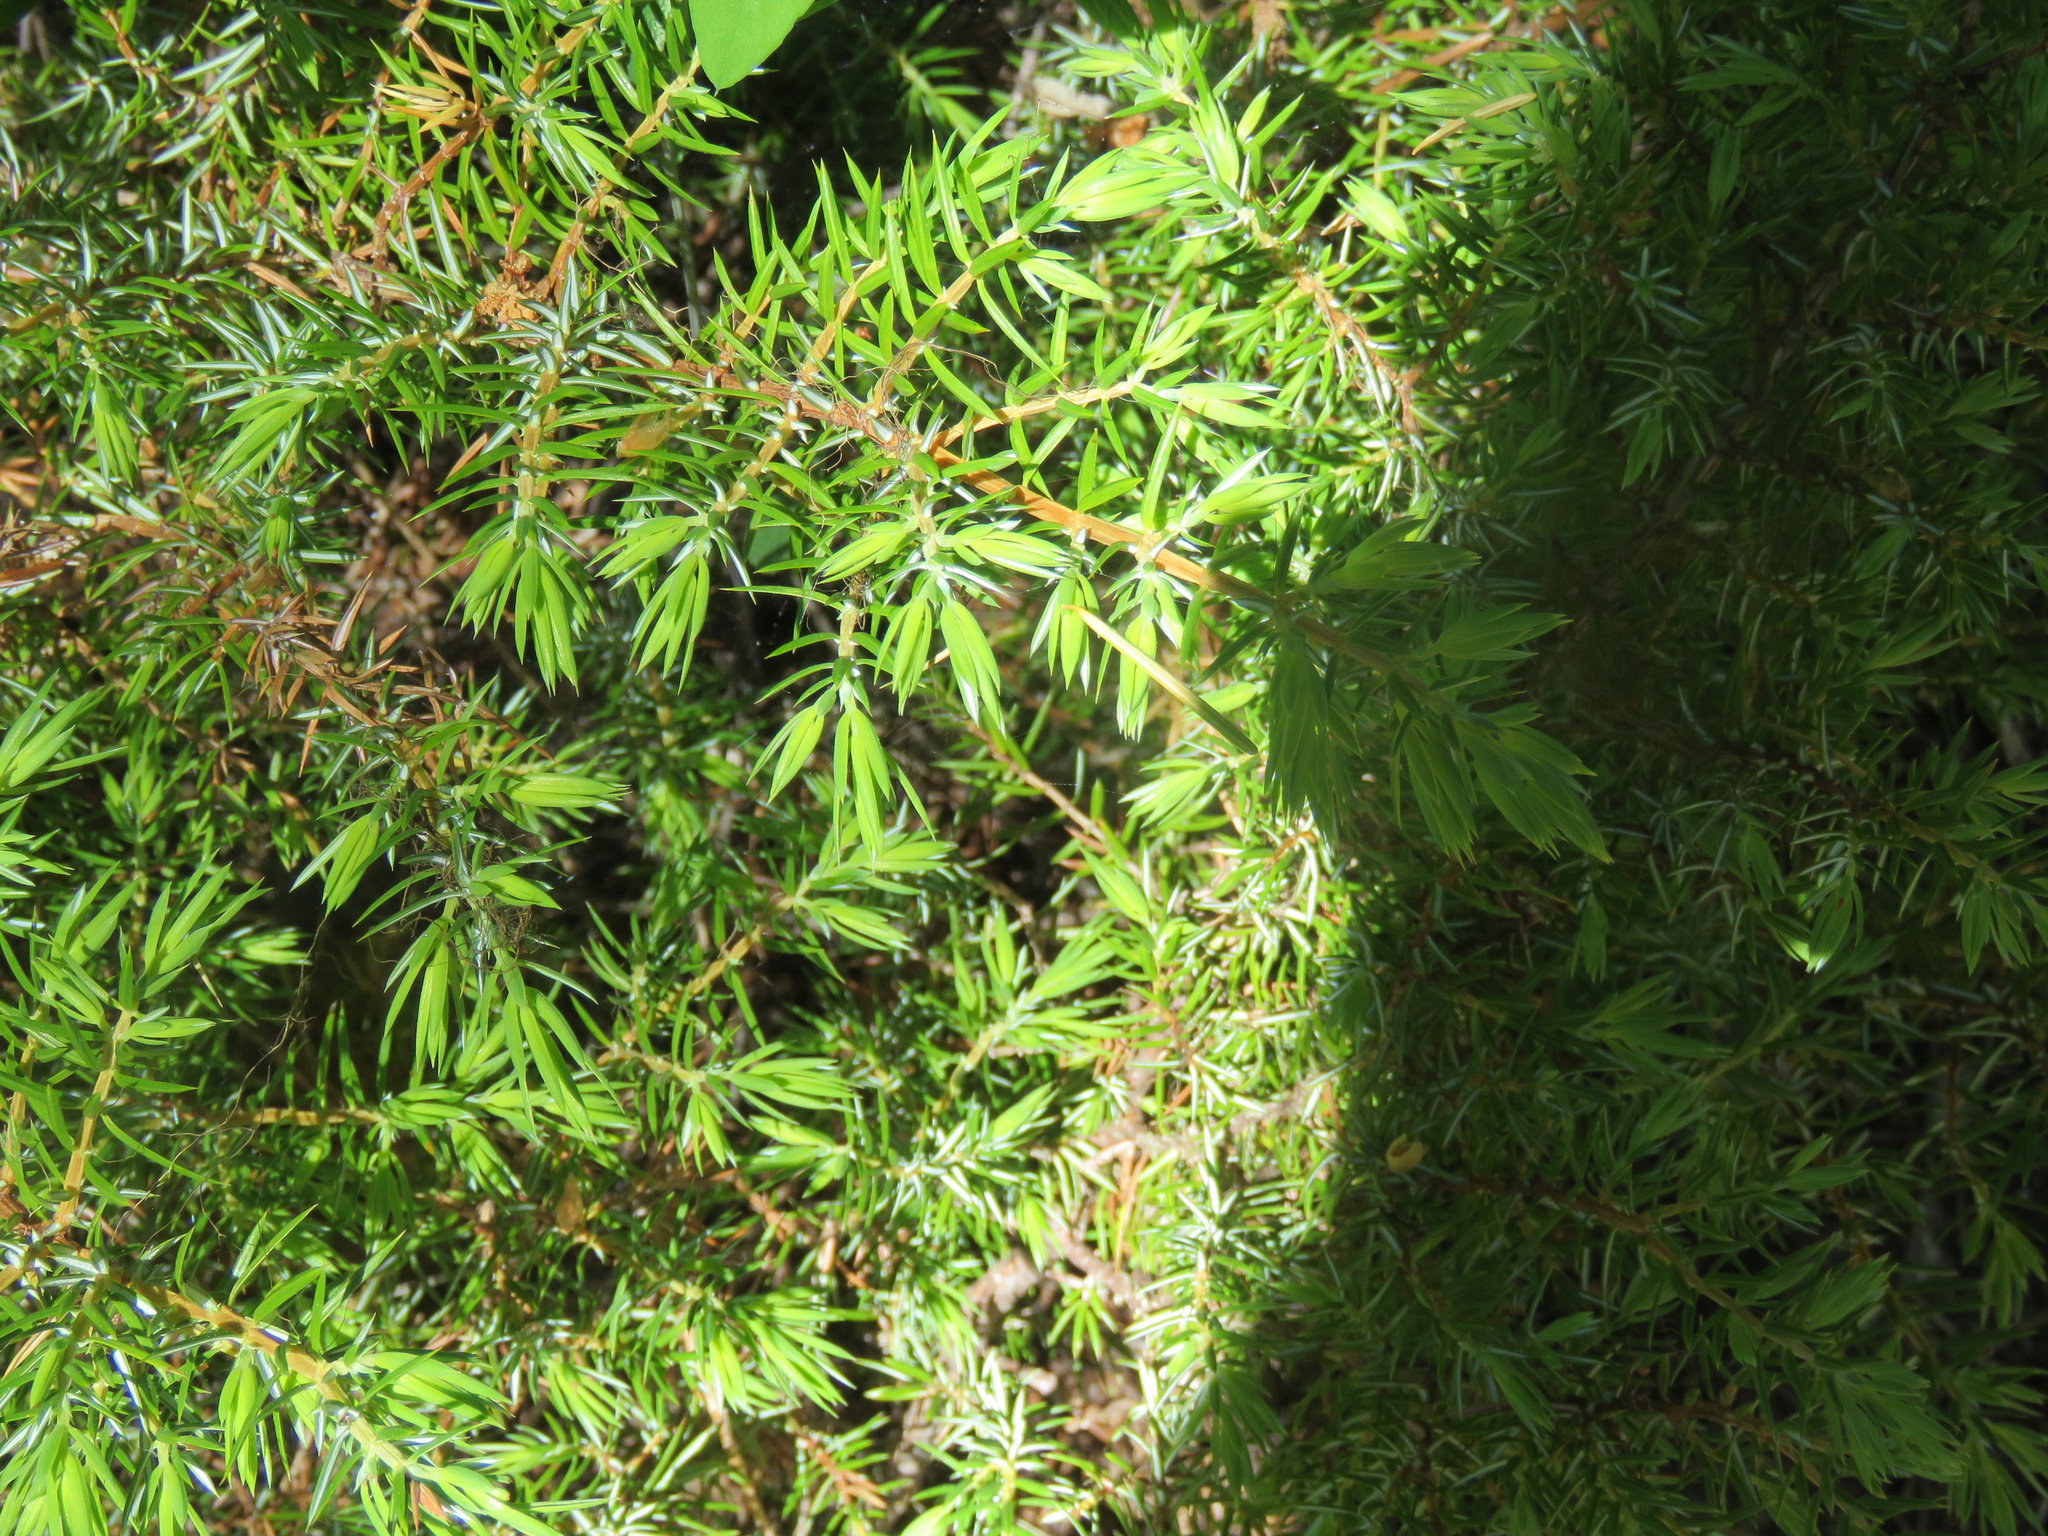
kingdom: Plantae
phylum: Tracheophyta
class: Pinopsida
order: Pinales
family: Cupressaceae
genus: Juniperus
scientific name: Juniperus communis
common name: Common juniper
